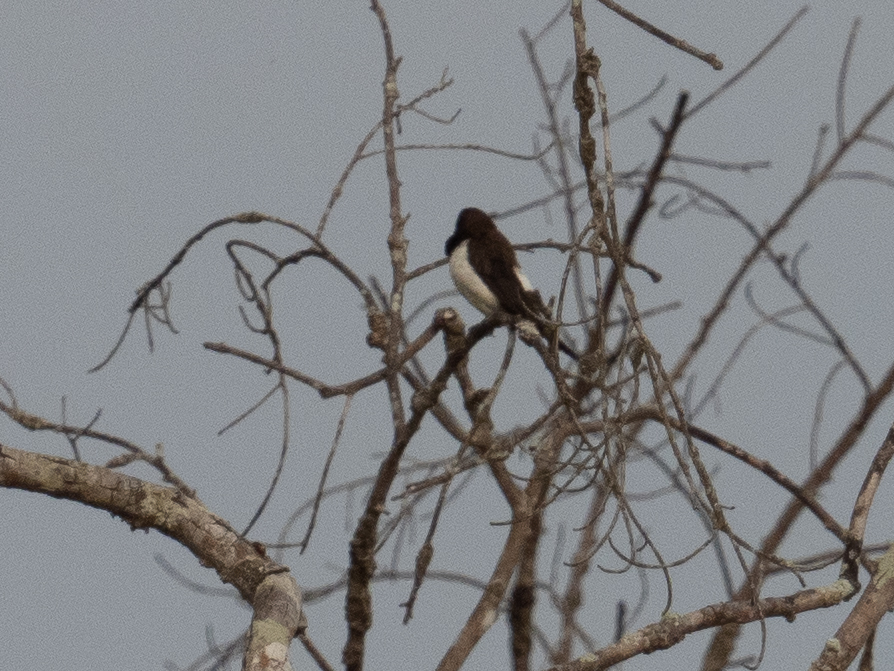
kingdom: Animalia
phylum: Chordata
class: Aves
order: Passeriformes
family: Estrildidae
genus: Lonchura
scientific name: Lonchura striata
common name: White-rumped munia
